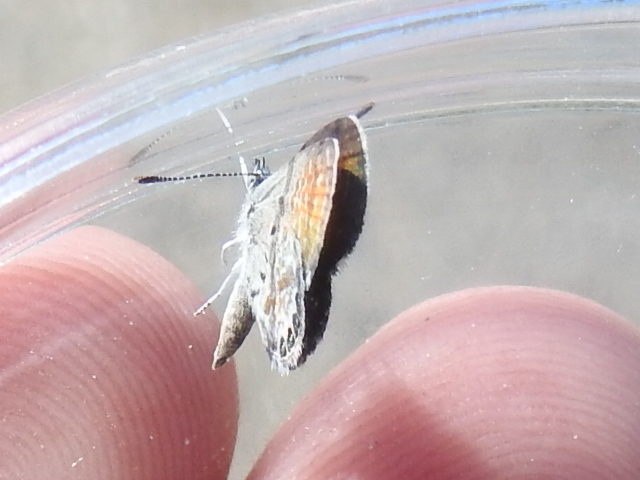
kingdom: Animalia
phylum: Arthropoda
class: Insecta
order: Lepidoptera
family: Lycaenidae
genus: Brephidium
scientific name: Brephidium exilis
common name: Pygmy blue
